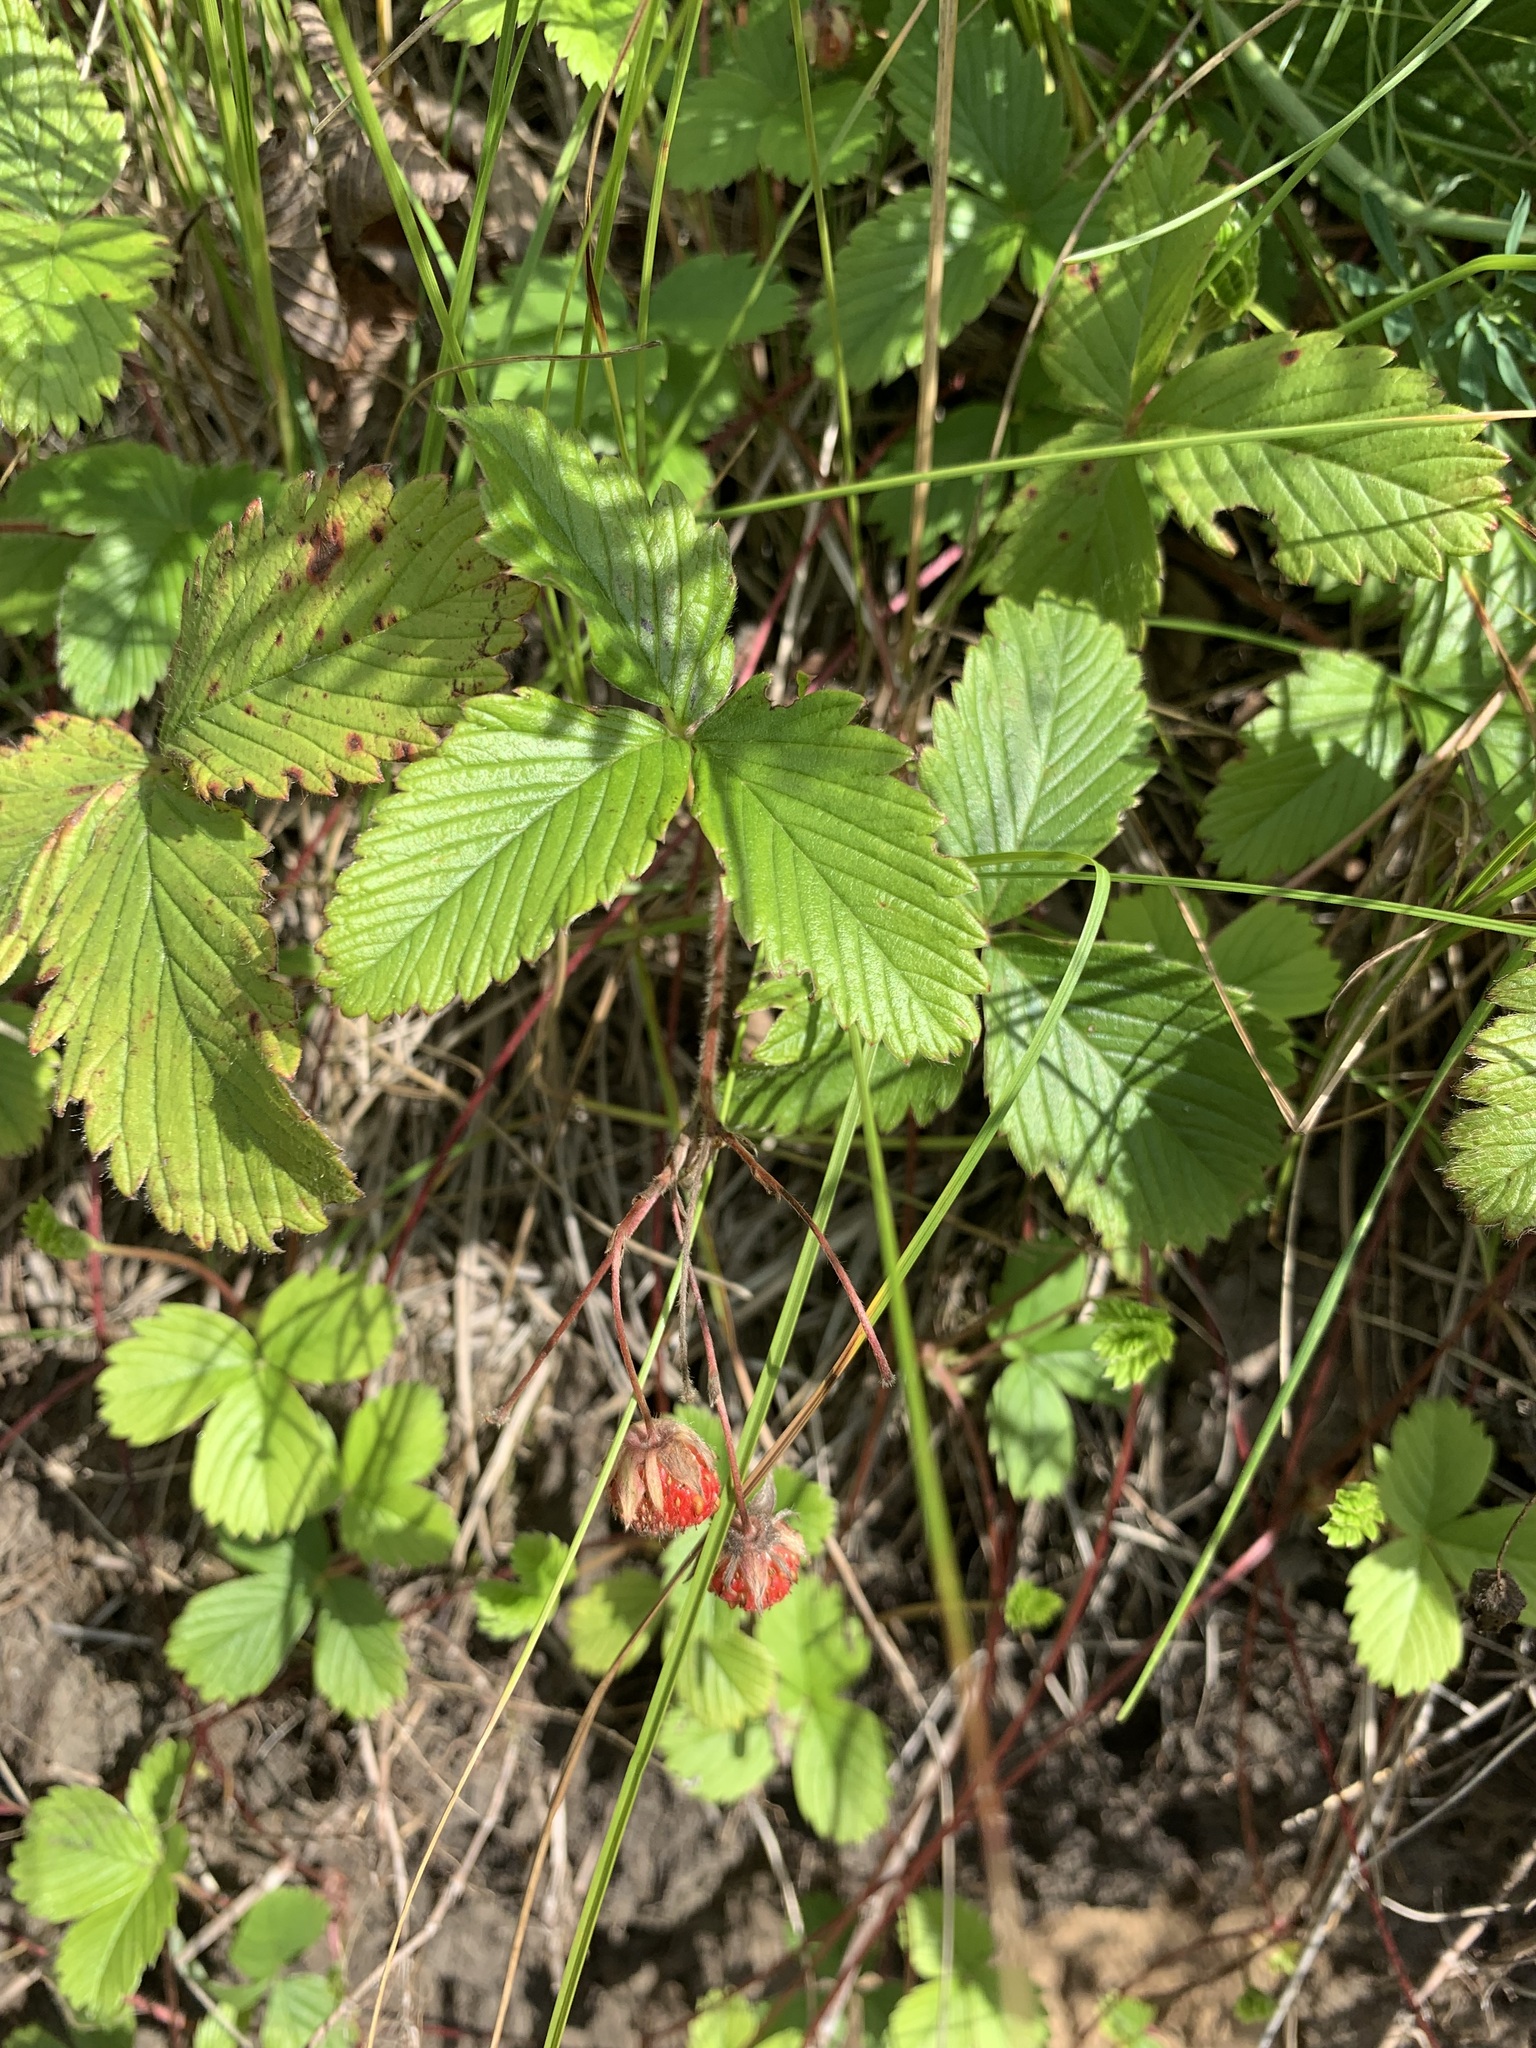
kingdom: Plantae
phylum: Tracheophyta
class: Magnoliopsida
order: Rosales
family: Rosaceae
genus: Fragaria
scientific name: Fragaria viridis
